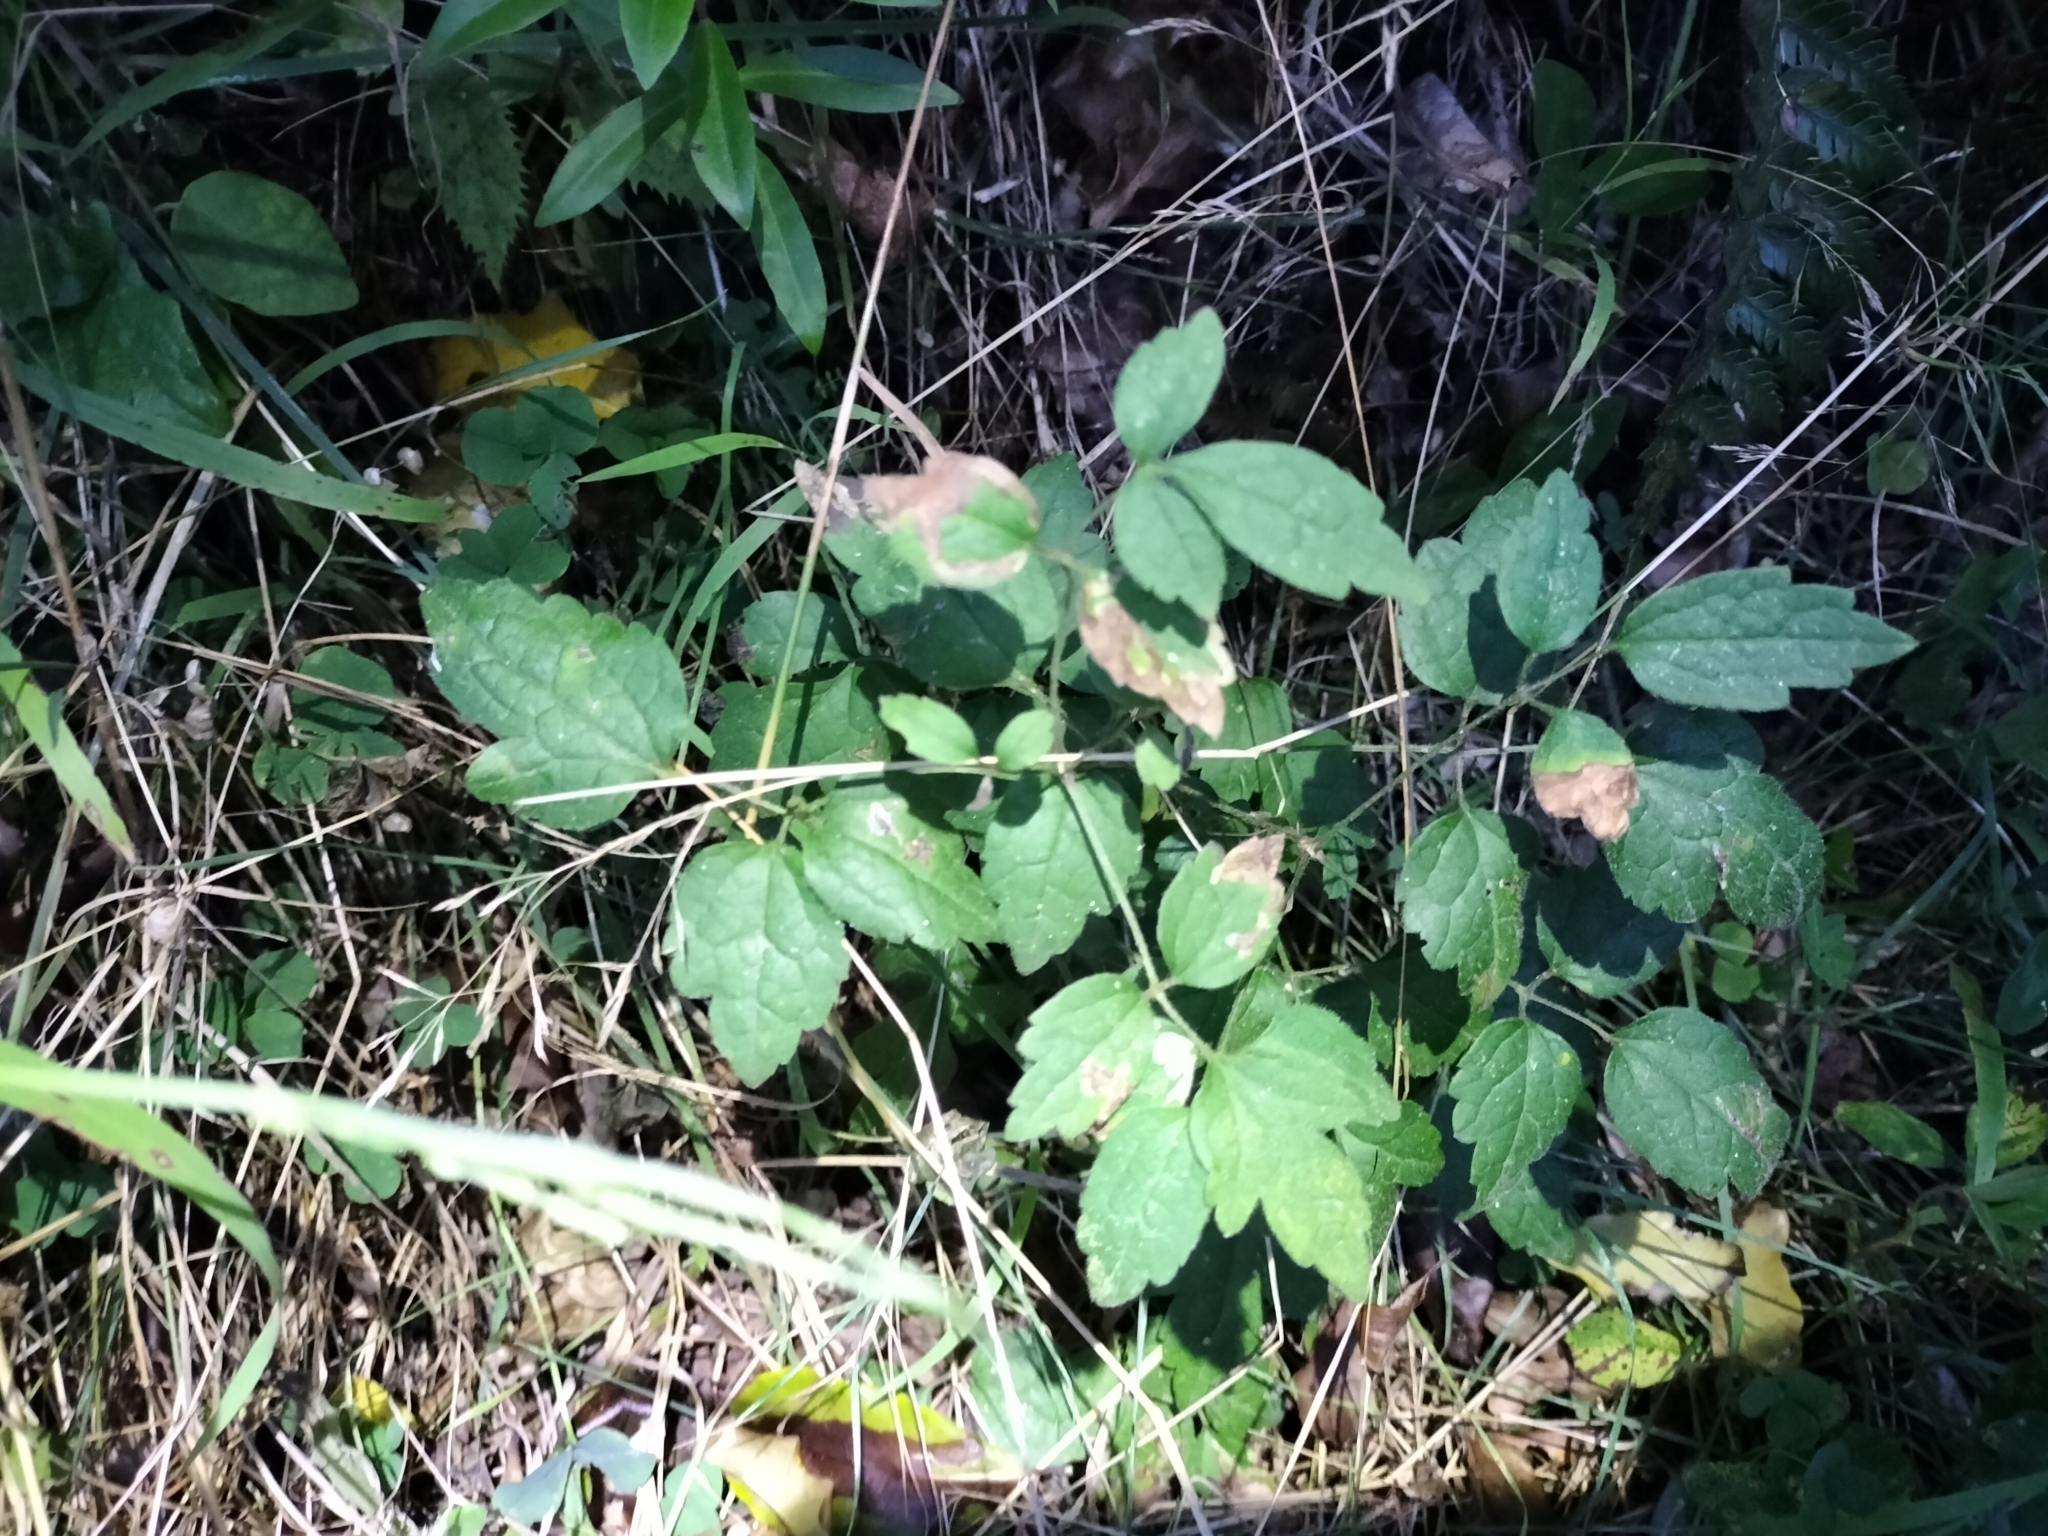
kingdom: Plantae
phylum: Tracheophyta
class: Magnoliopsida
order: Ranunculales
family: Ranunculaceae
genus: Clematis
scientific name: Clematis vitalba
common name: Evergreen clematis
